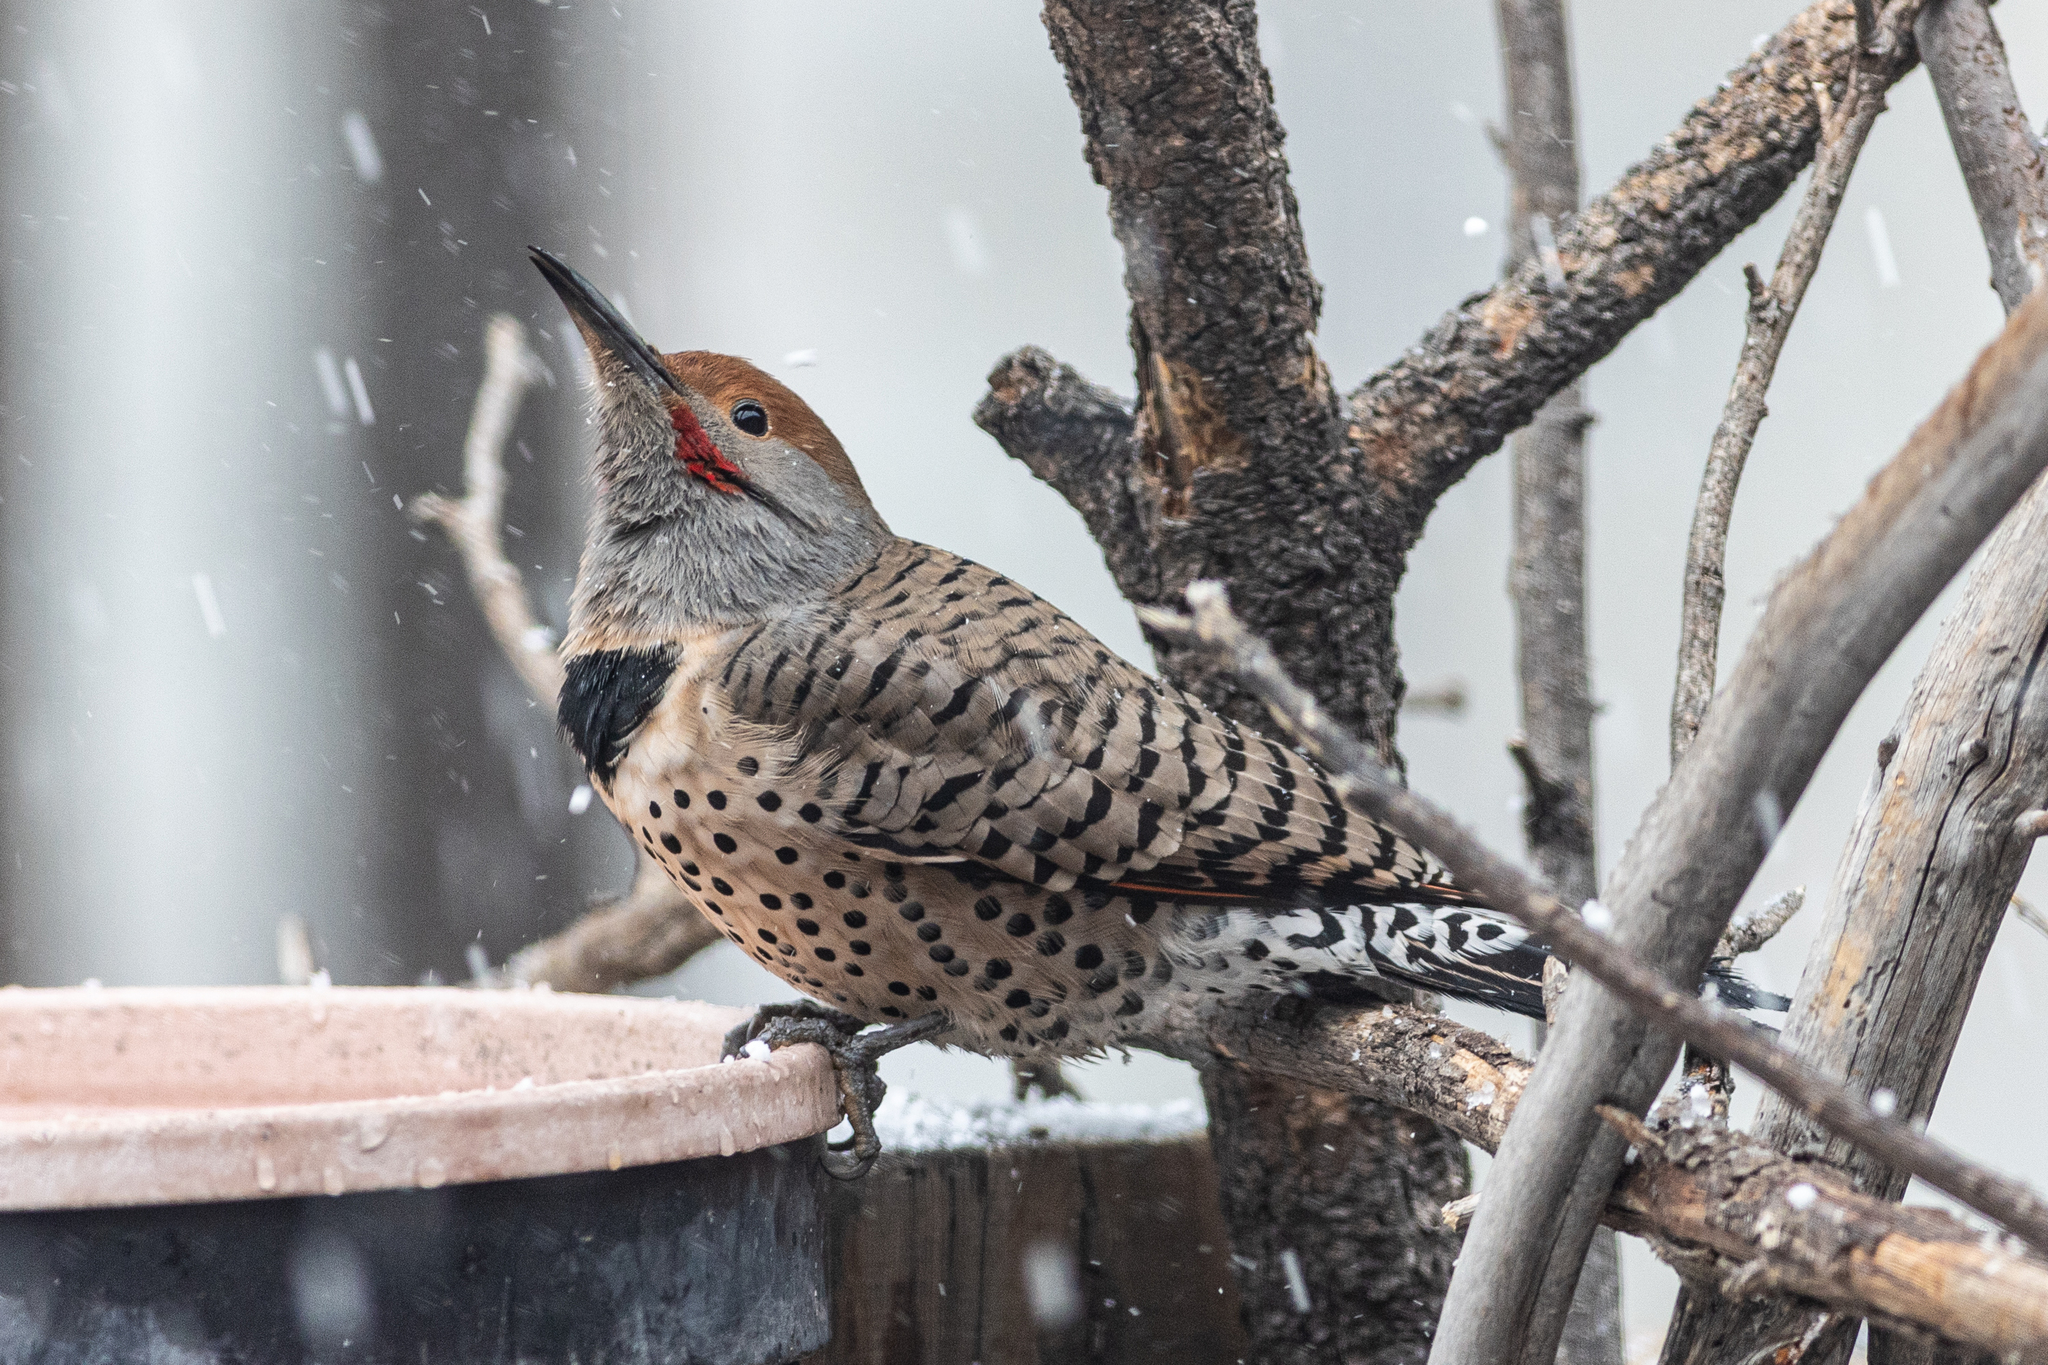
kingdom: Animalia
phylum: Chordata
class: Aves
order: Piciformes
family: Picidae
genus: Colaptes
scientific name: Colaptes auratus
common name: Northern flicker
